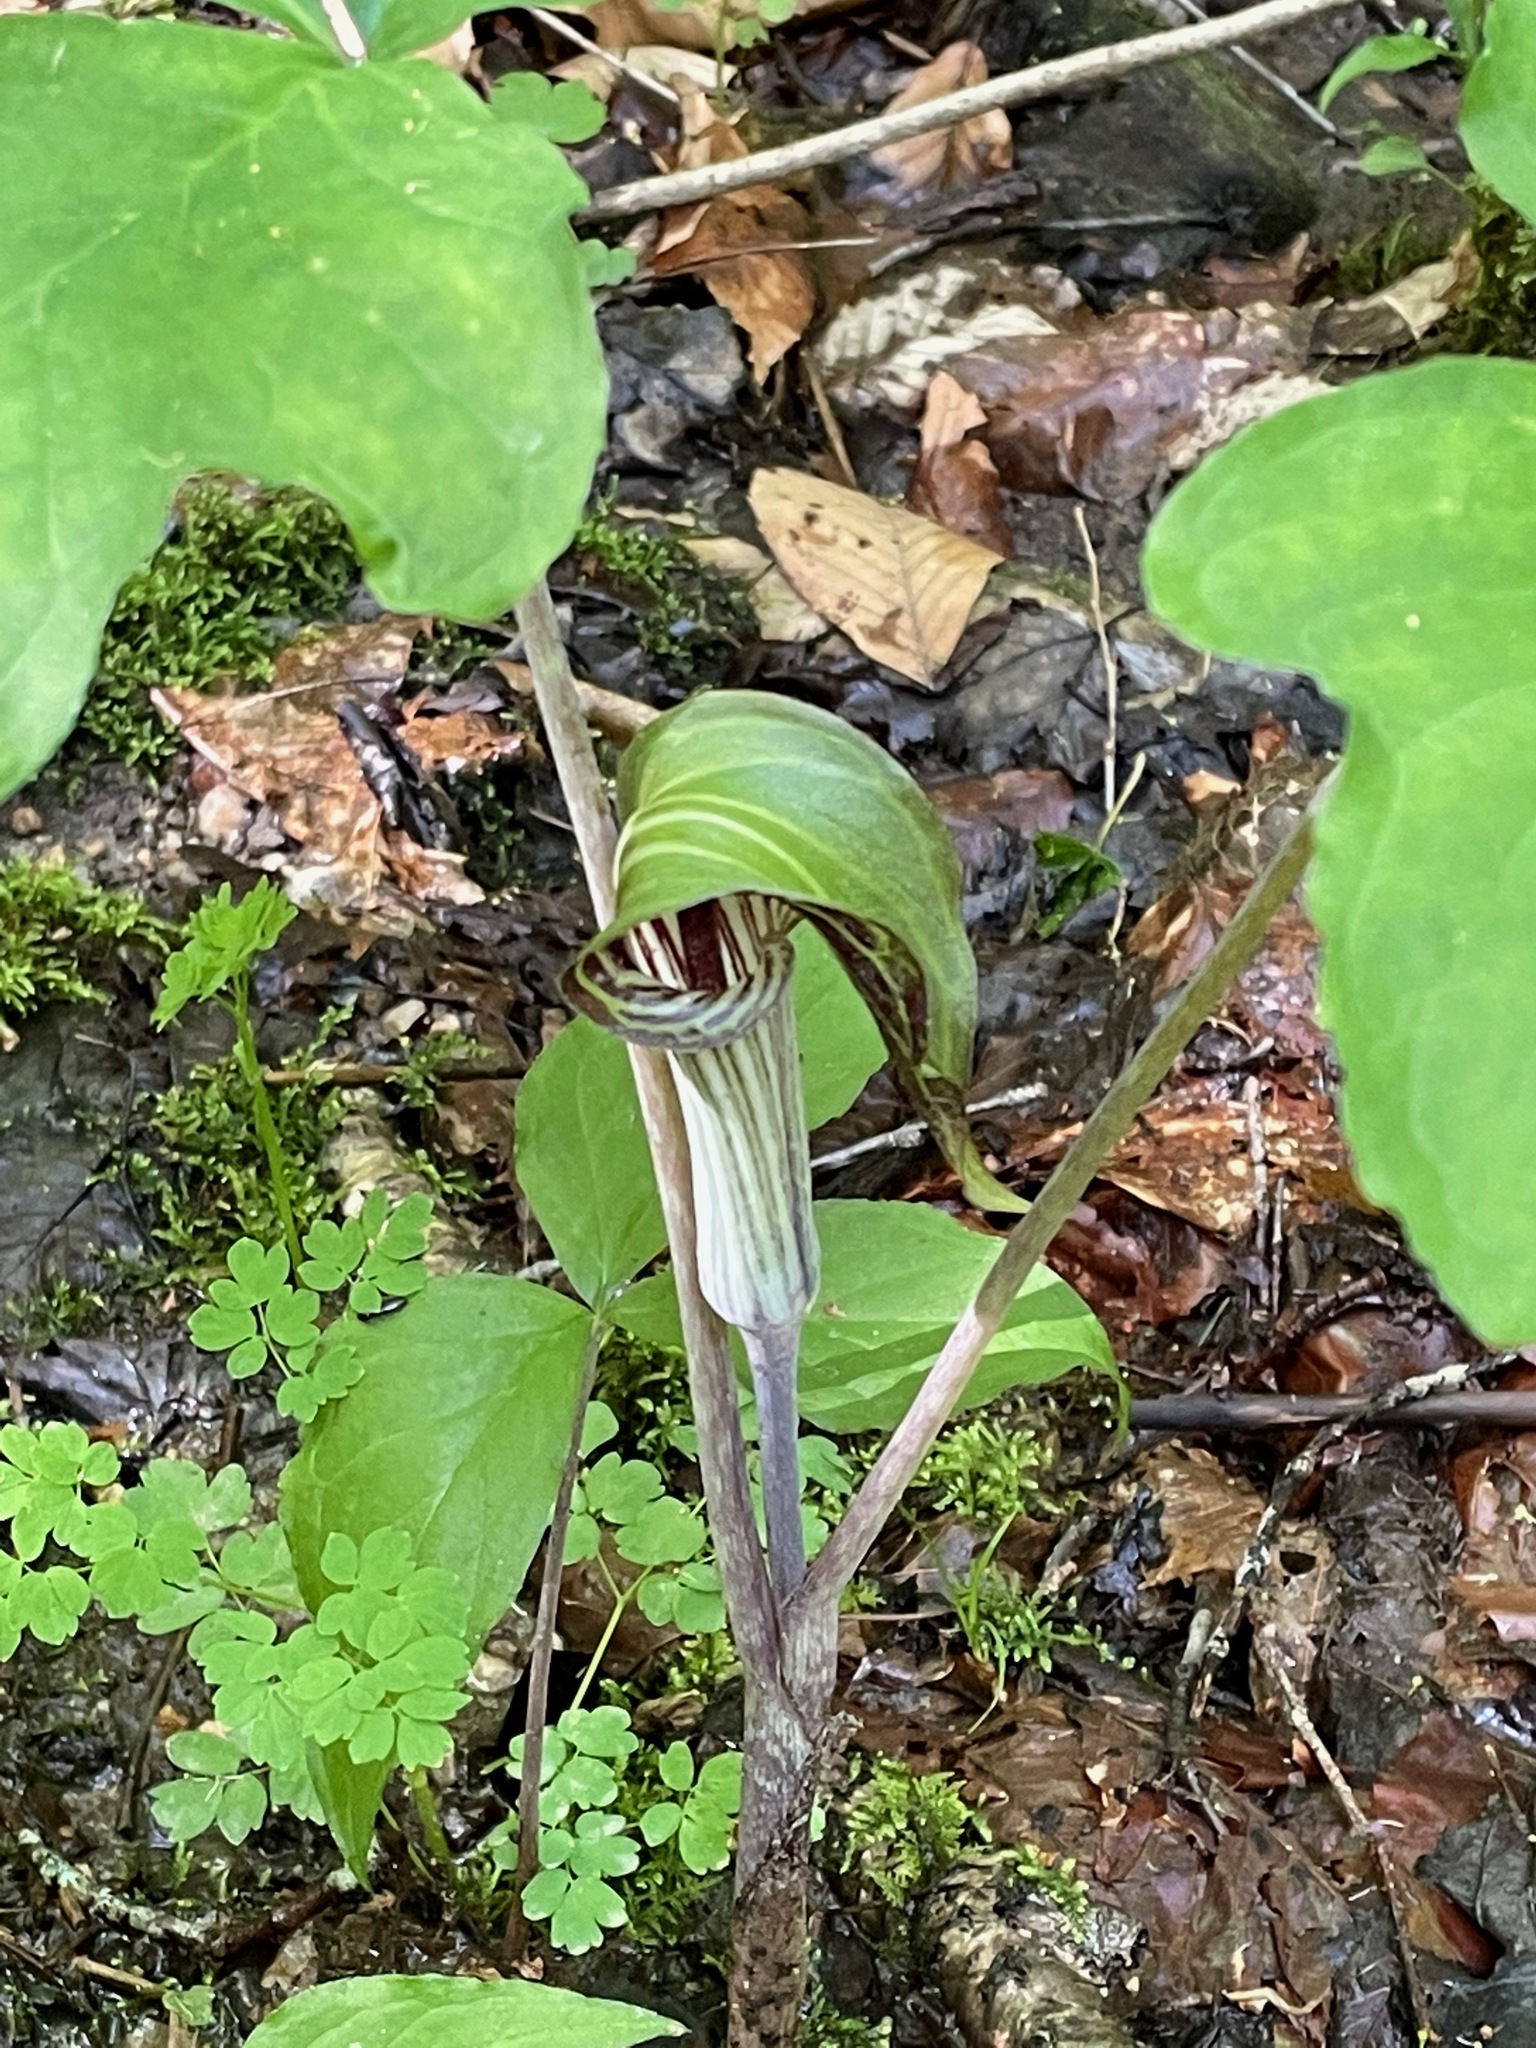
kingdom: Plantae
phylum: Tracheophyta
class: Liliopsida
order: Alismatales
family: Araceae
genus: Arisaema
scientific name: Arisaema triphyllum
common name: Jack-in-the-pulpit
